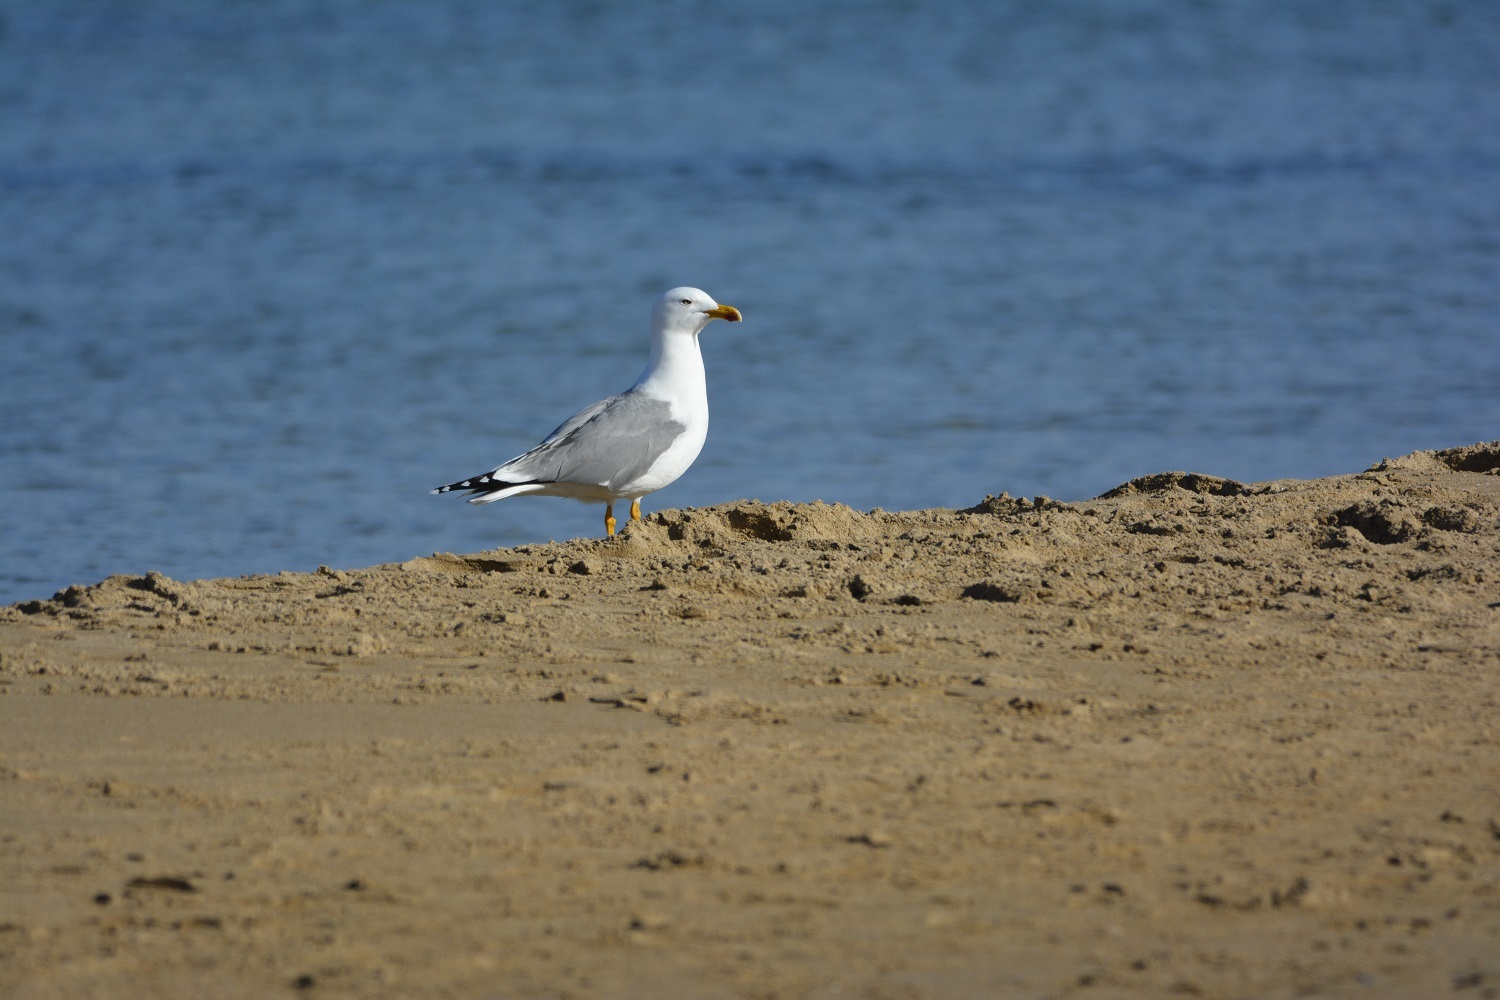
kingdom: Animalia
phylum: Chordata
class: Aves
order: Charadriiformes
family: Laridae
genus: Larus
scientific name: Larus michahellis
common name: Yellow-legged gull
